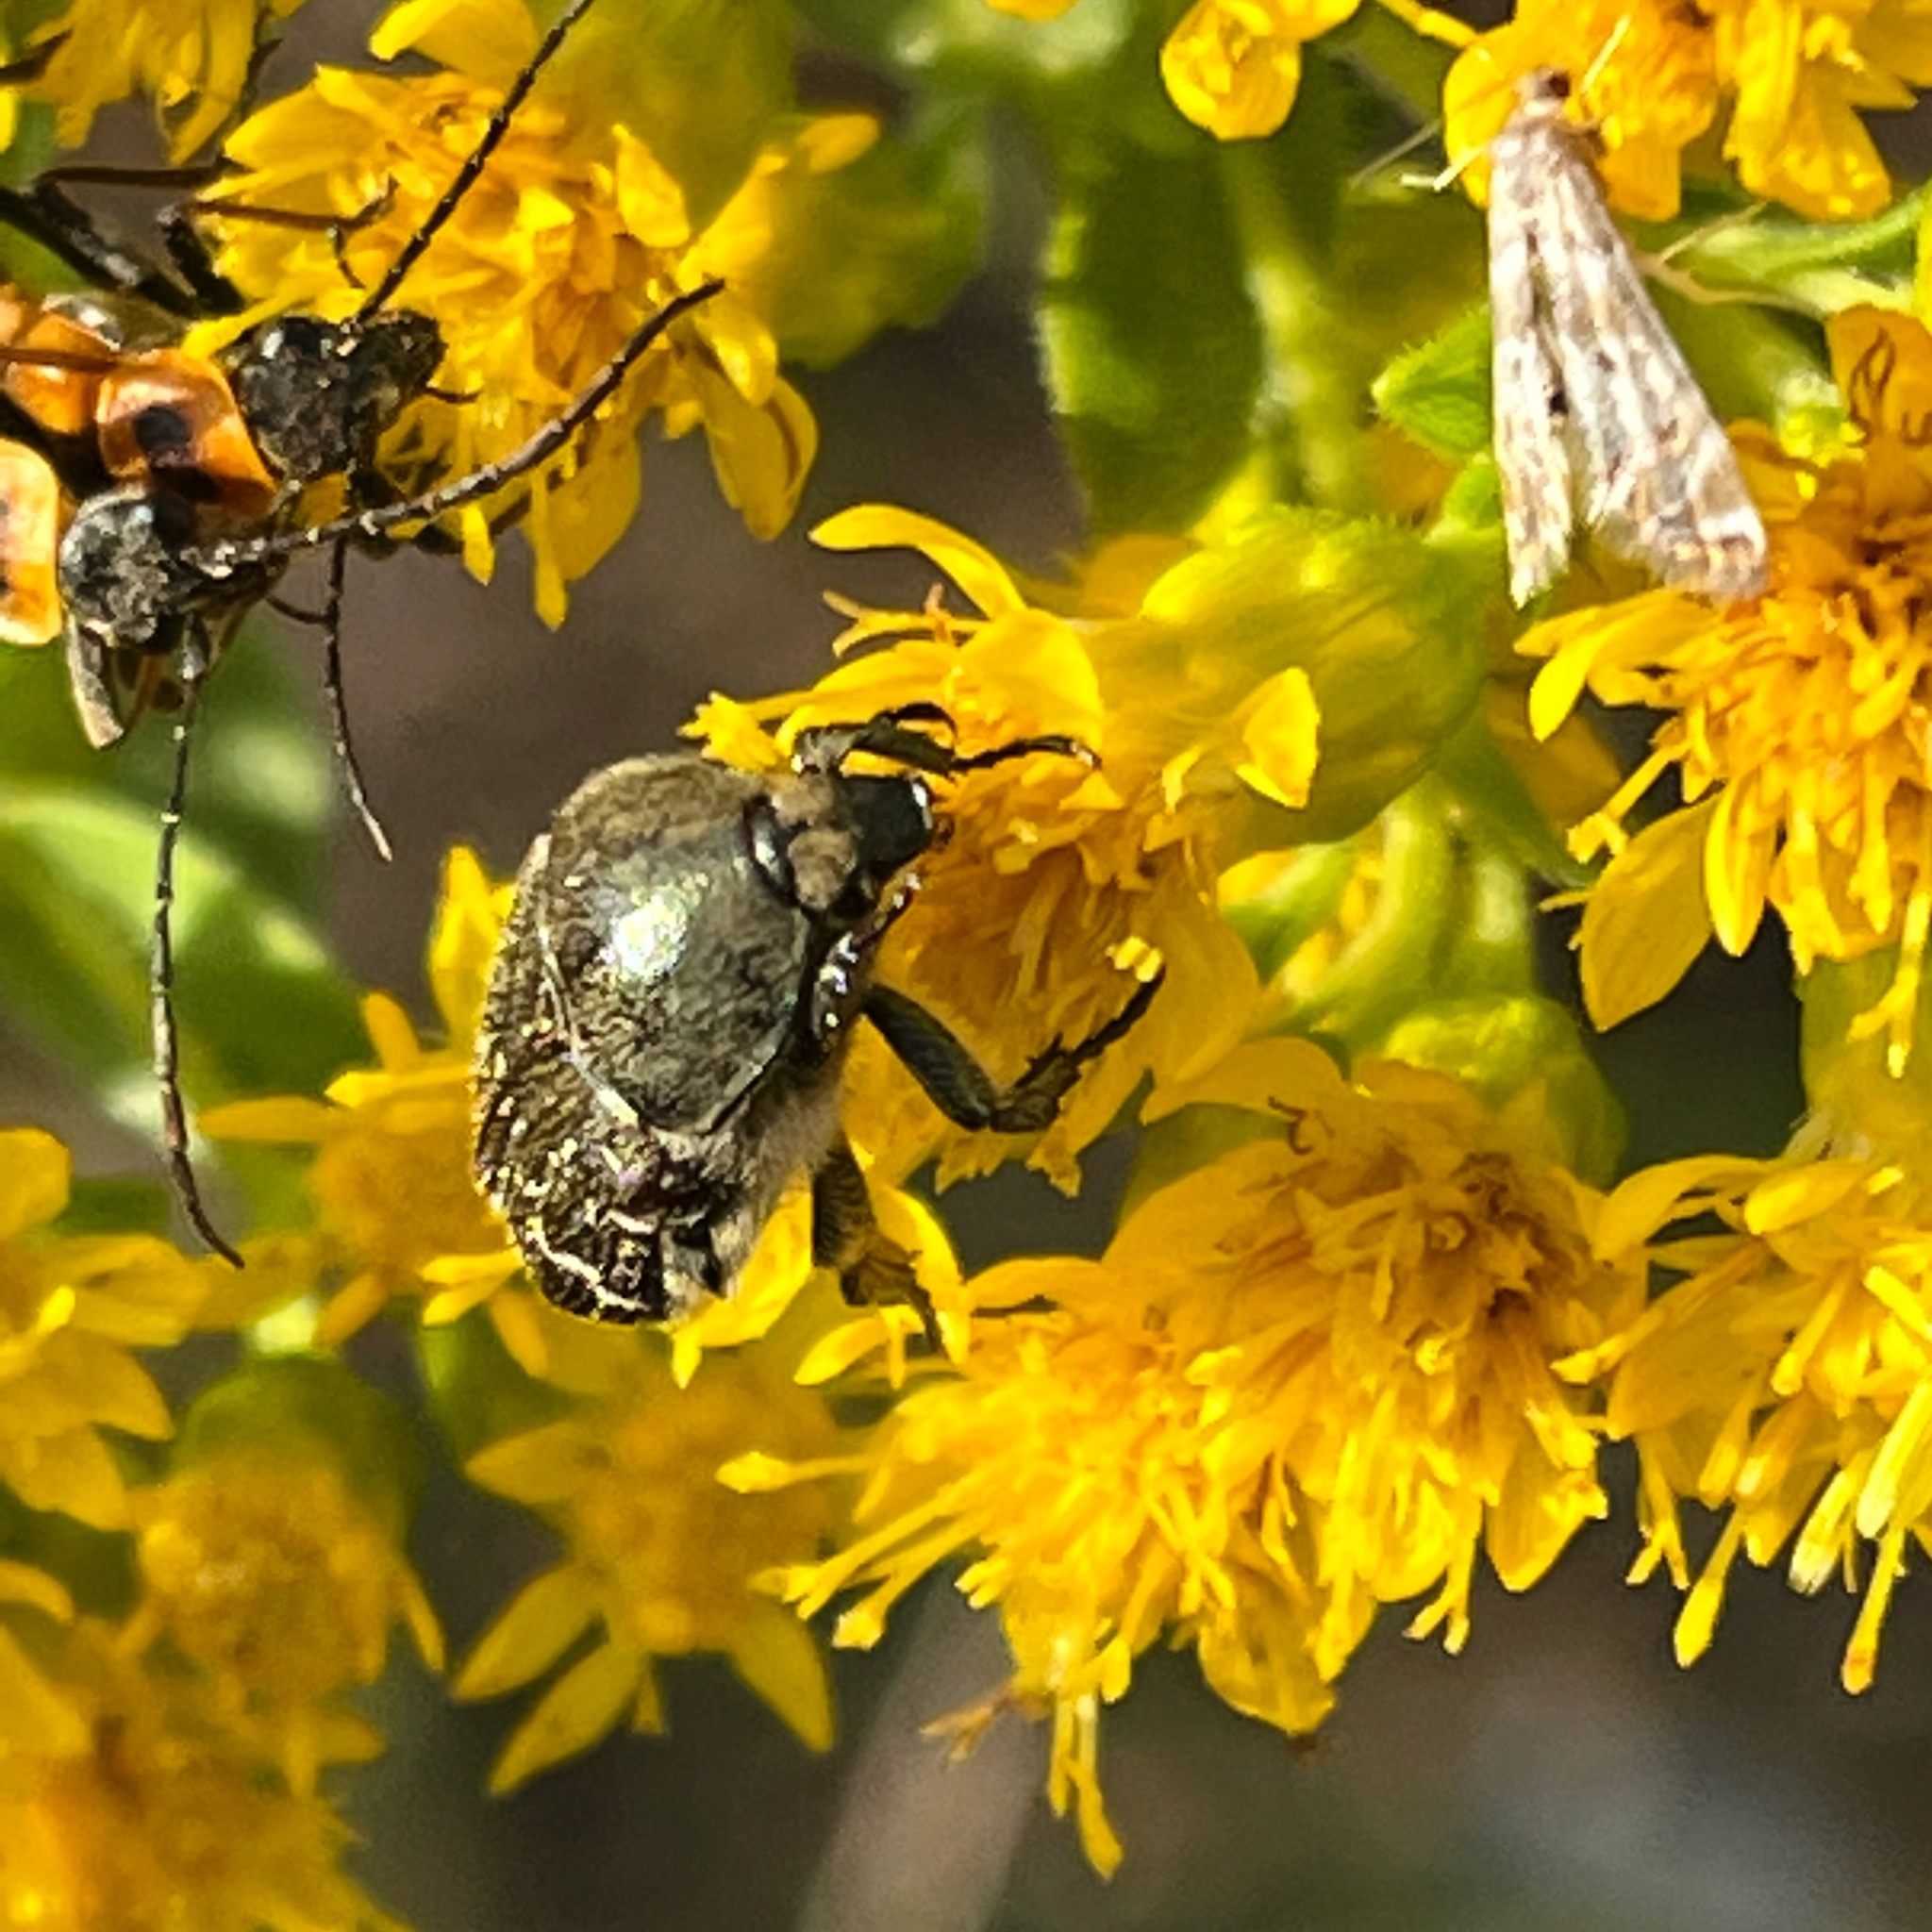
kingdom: Animalia
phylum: Arthropoda
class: Insecta
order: Coleoptera
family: Scarabaeidae
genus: Euphoria
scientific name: Euphoria sepulcralis
